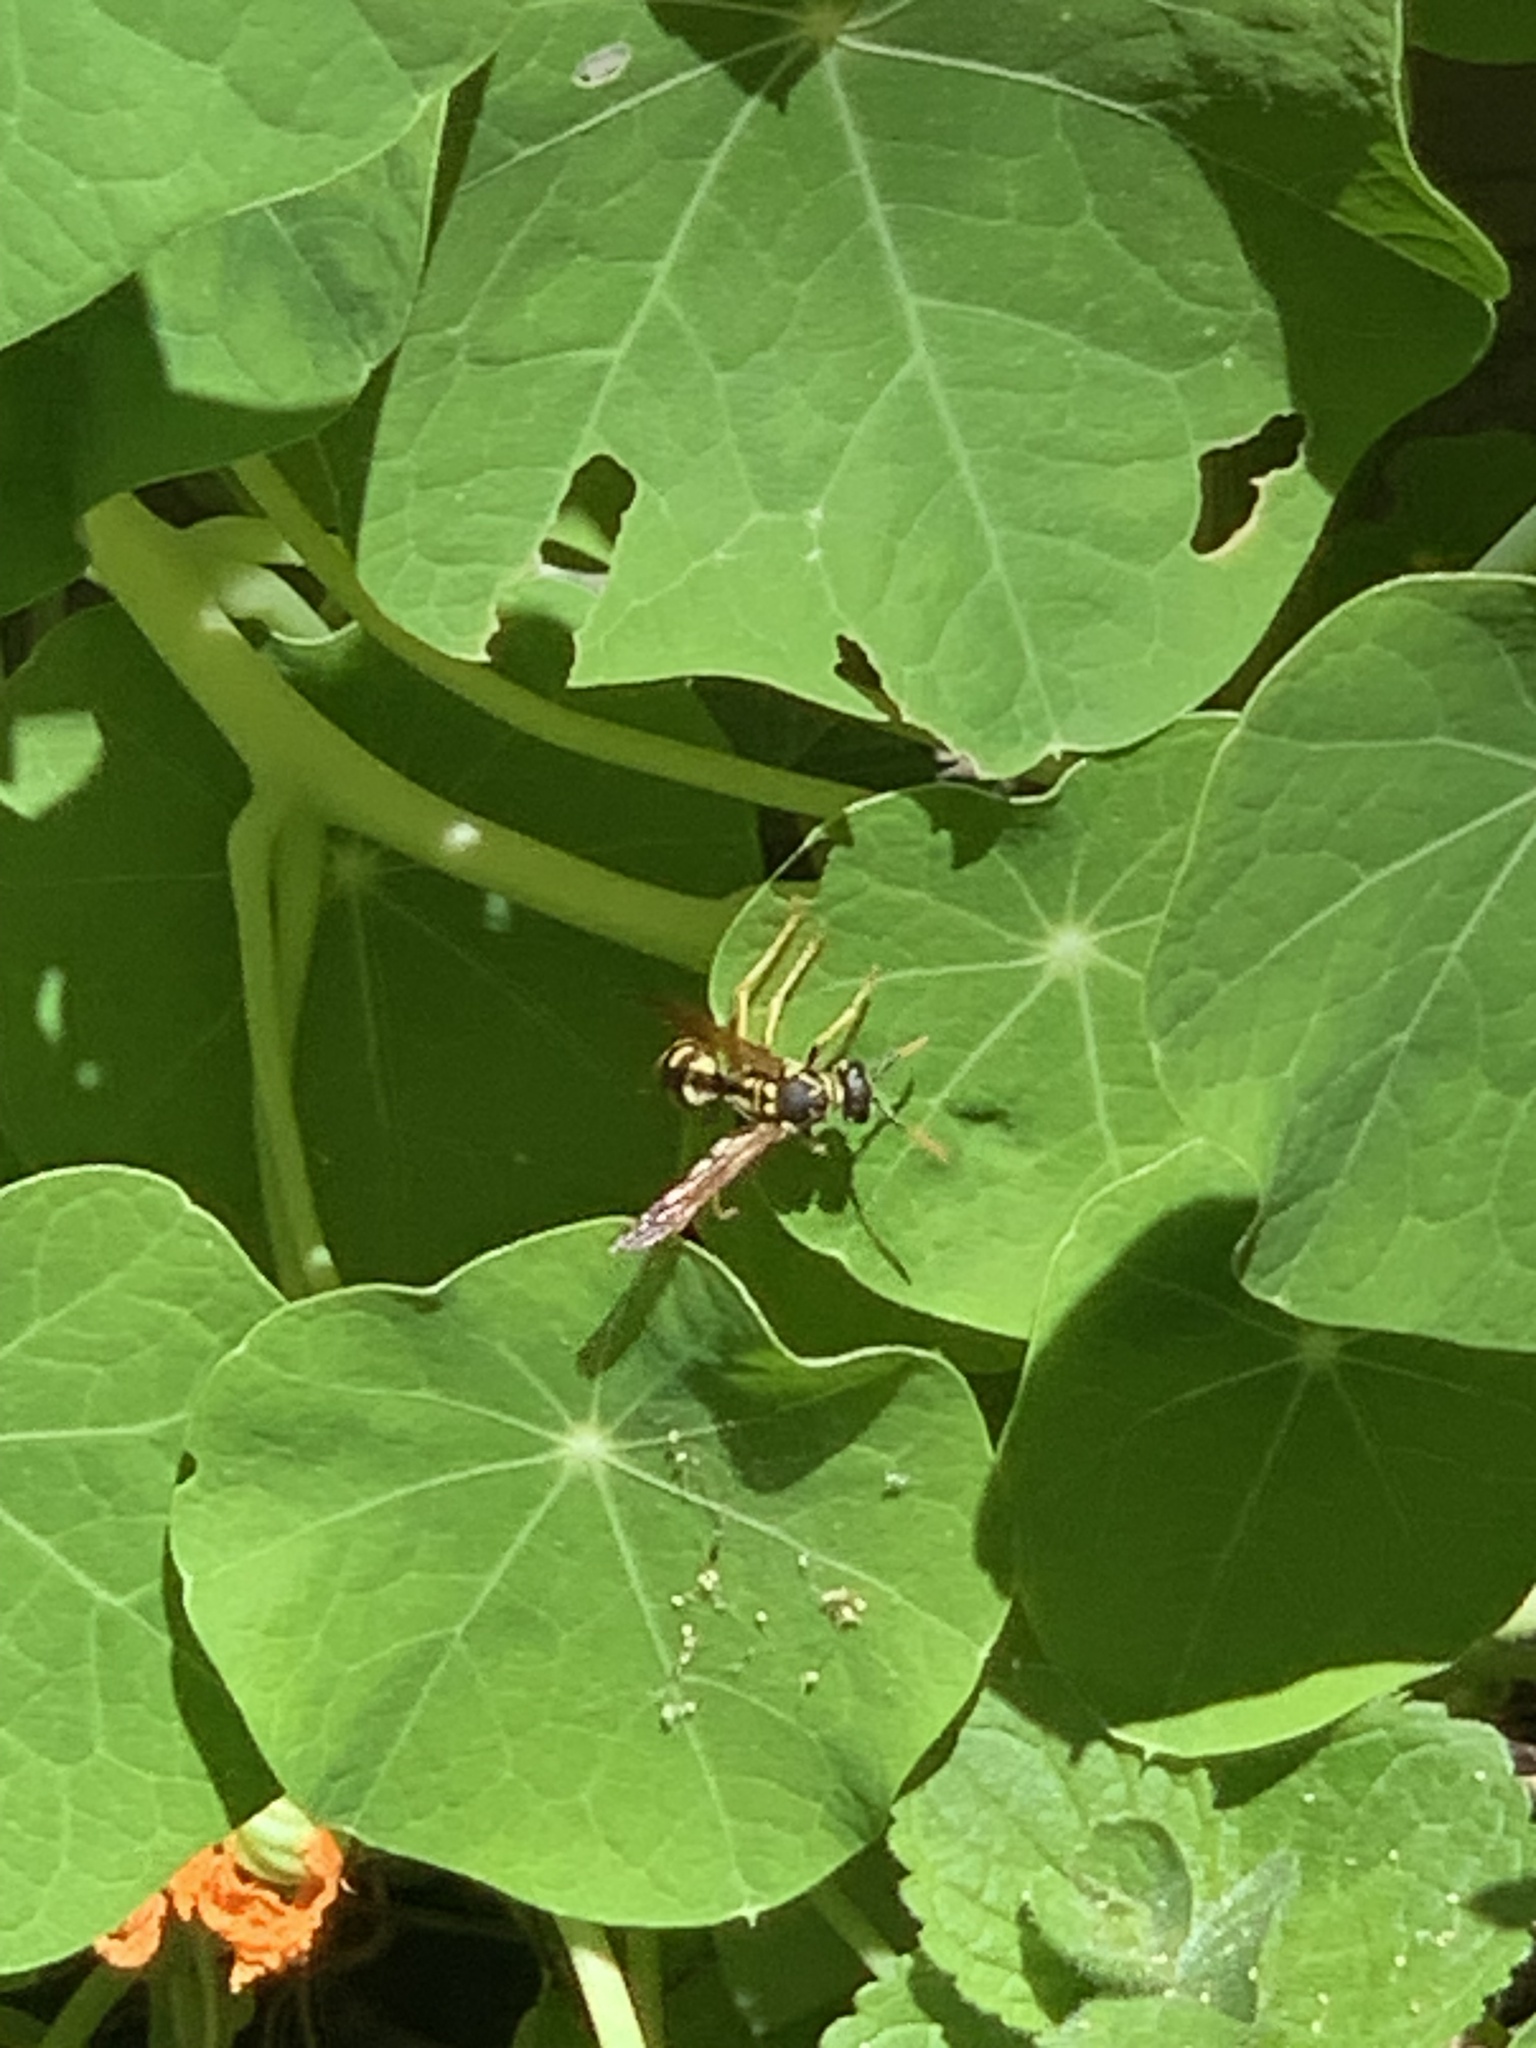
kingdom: Animalia
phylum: Arthropoda
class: Insecta
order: Hymenoptera
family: Eumenidae
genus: Polistes
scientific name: Polistes dominula
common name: Paper wasp
